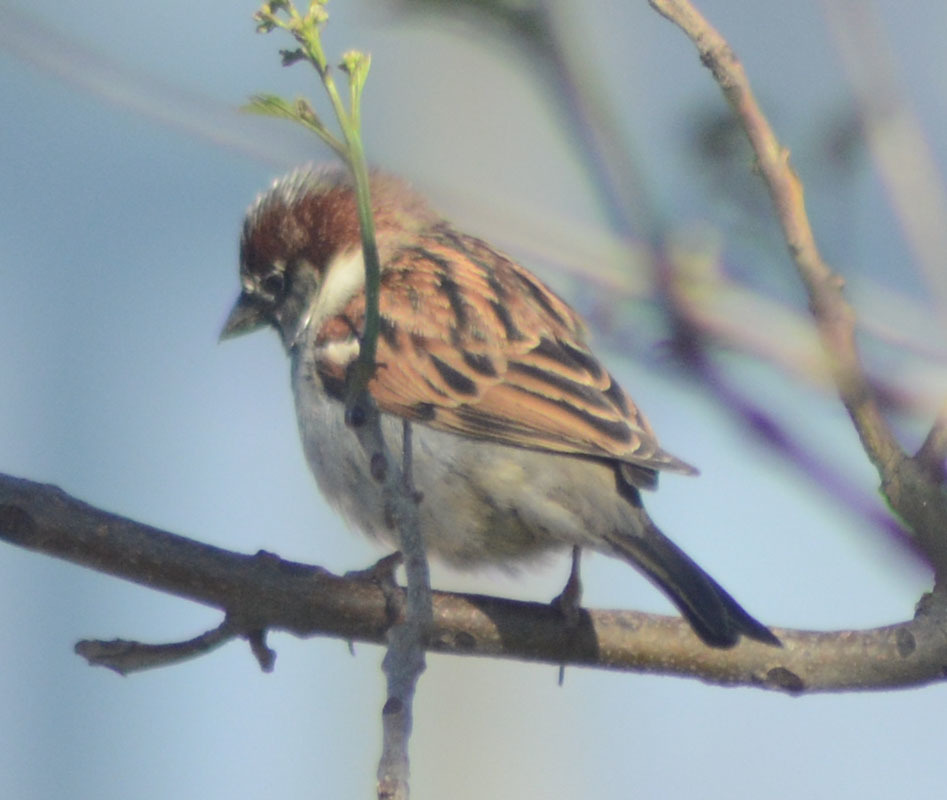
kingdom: Animalia
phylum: Chordata
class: Aves
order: Passeriformes
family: Passeridae
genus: Passer
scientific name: Passer domesticus
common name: House sparrow
